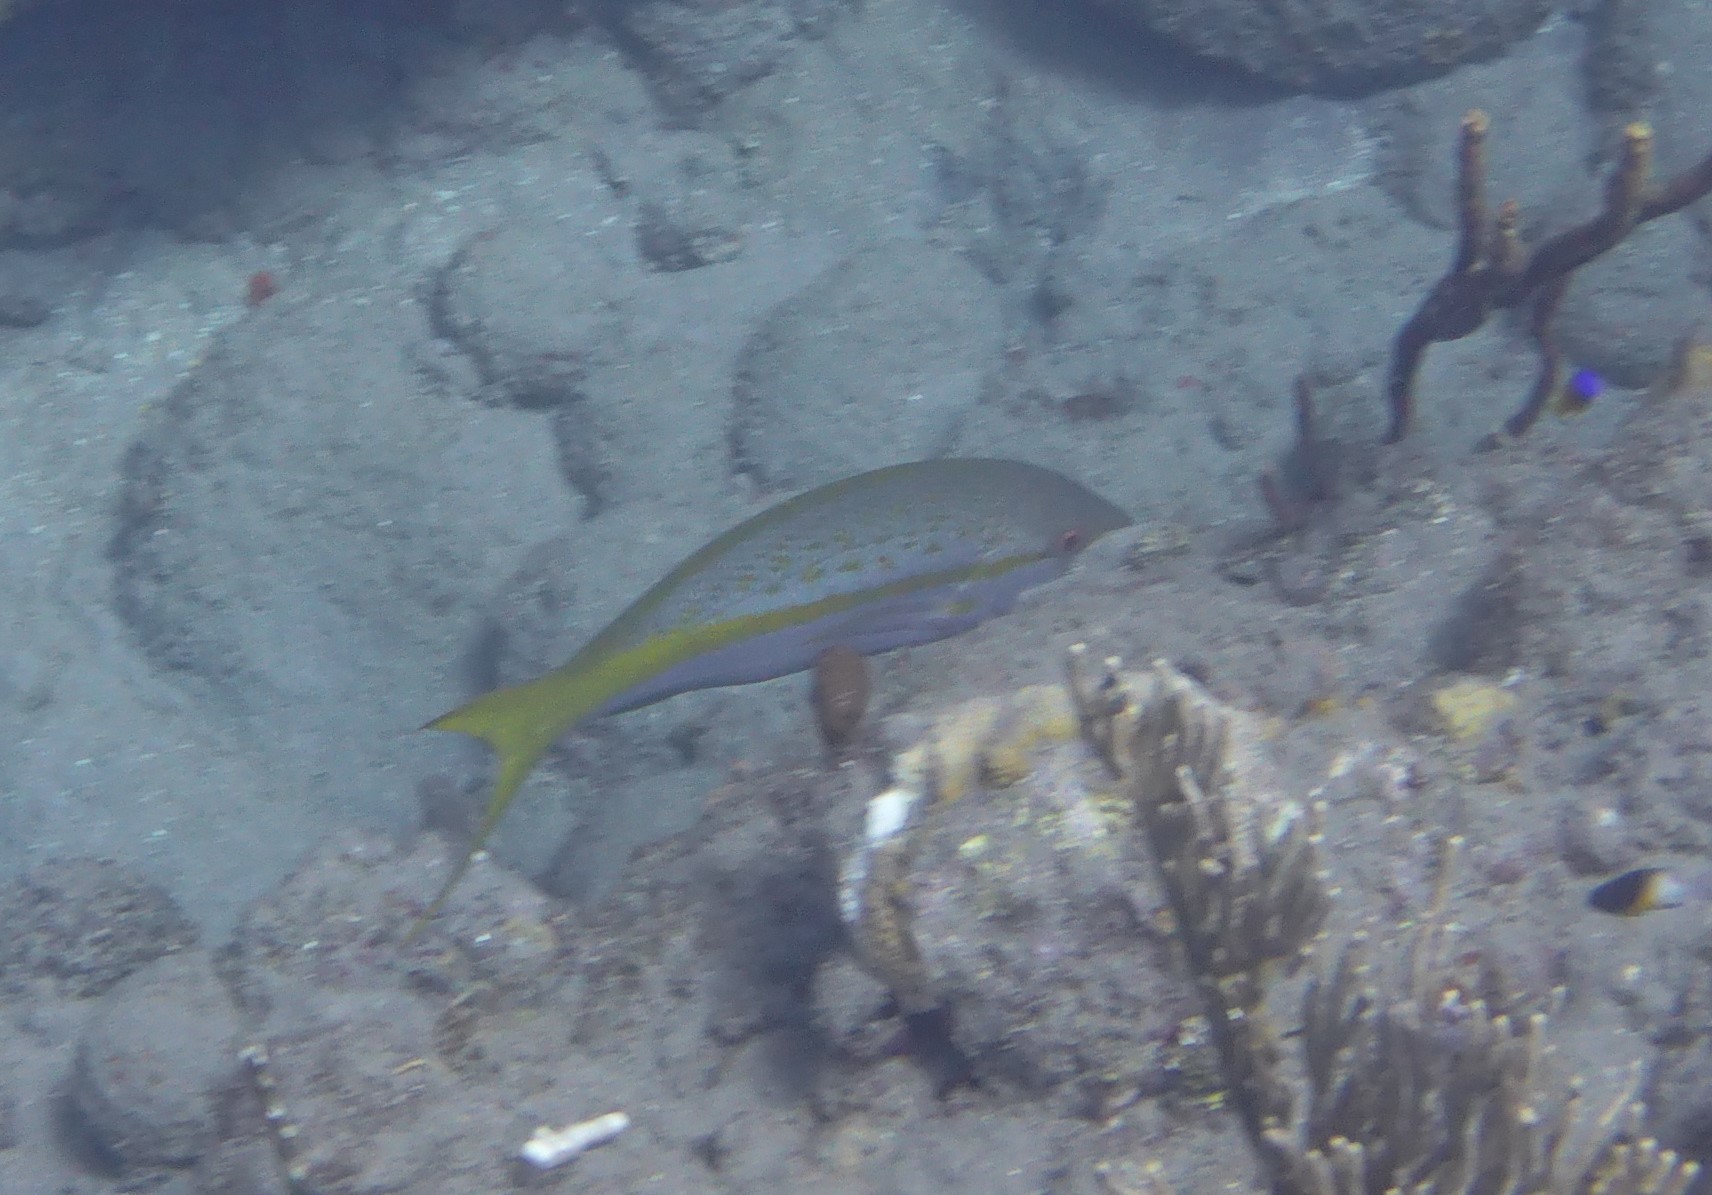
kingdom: Animalia
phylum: Chordata
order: Perciformes
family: Lutjanidae
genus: Ocyurus
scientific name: Ocyurus chrysurus
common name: Yellowtail snapper
